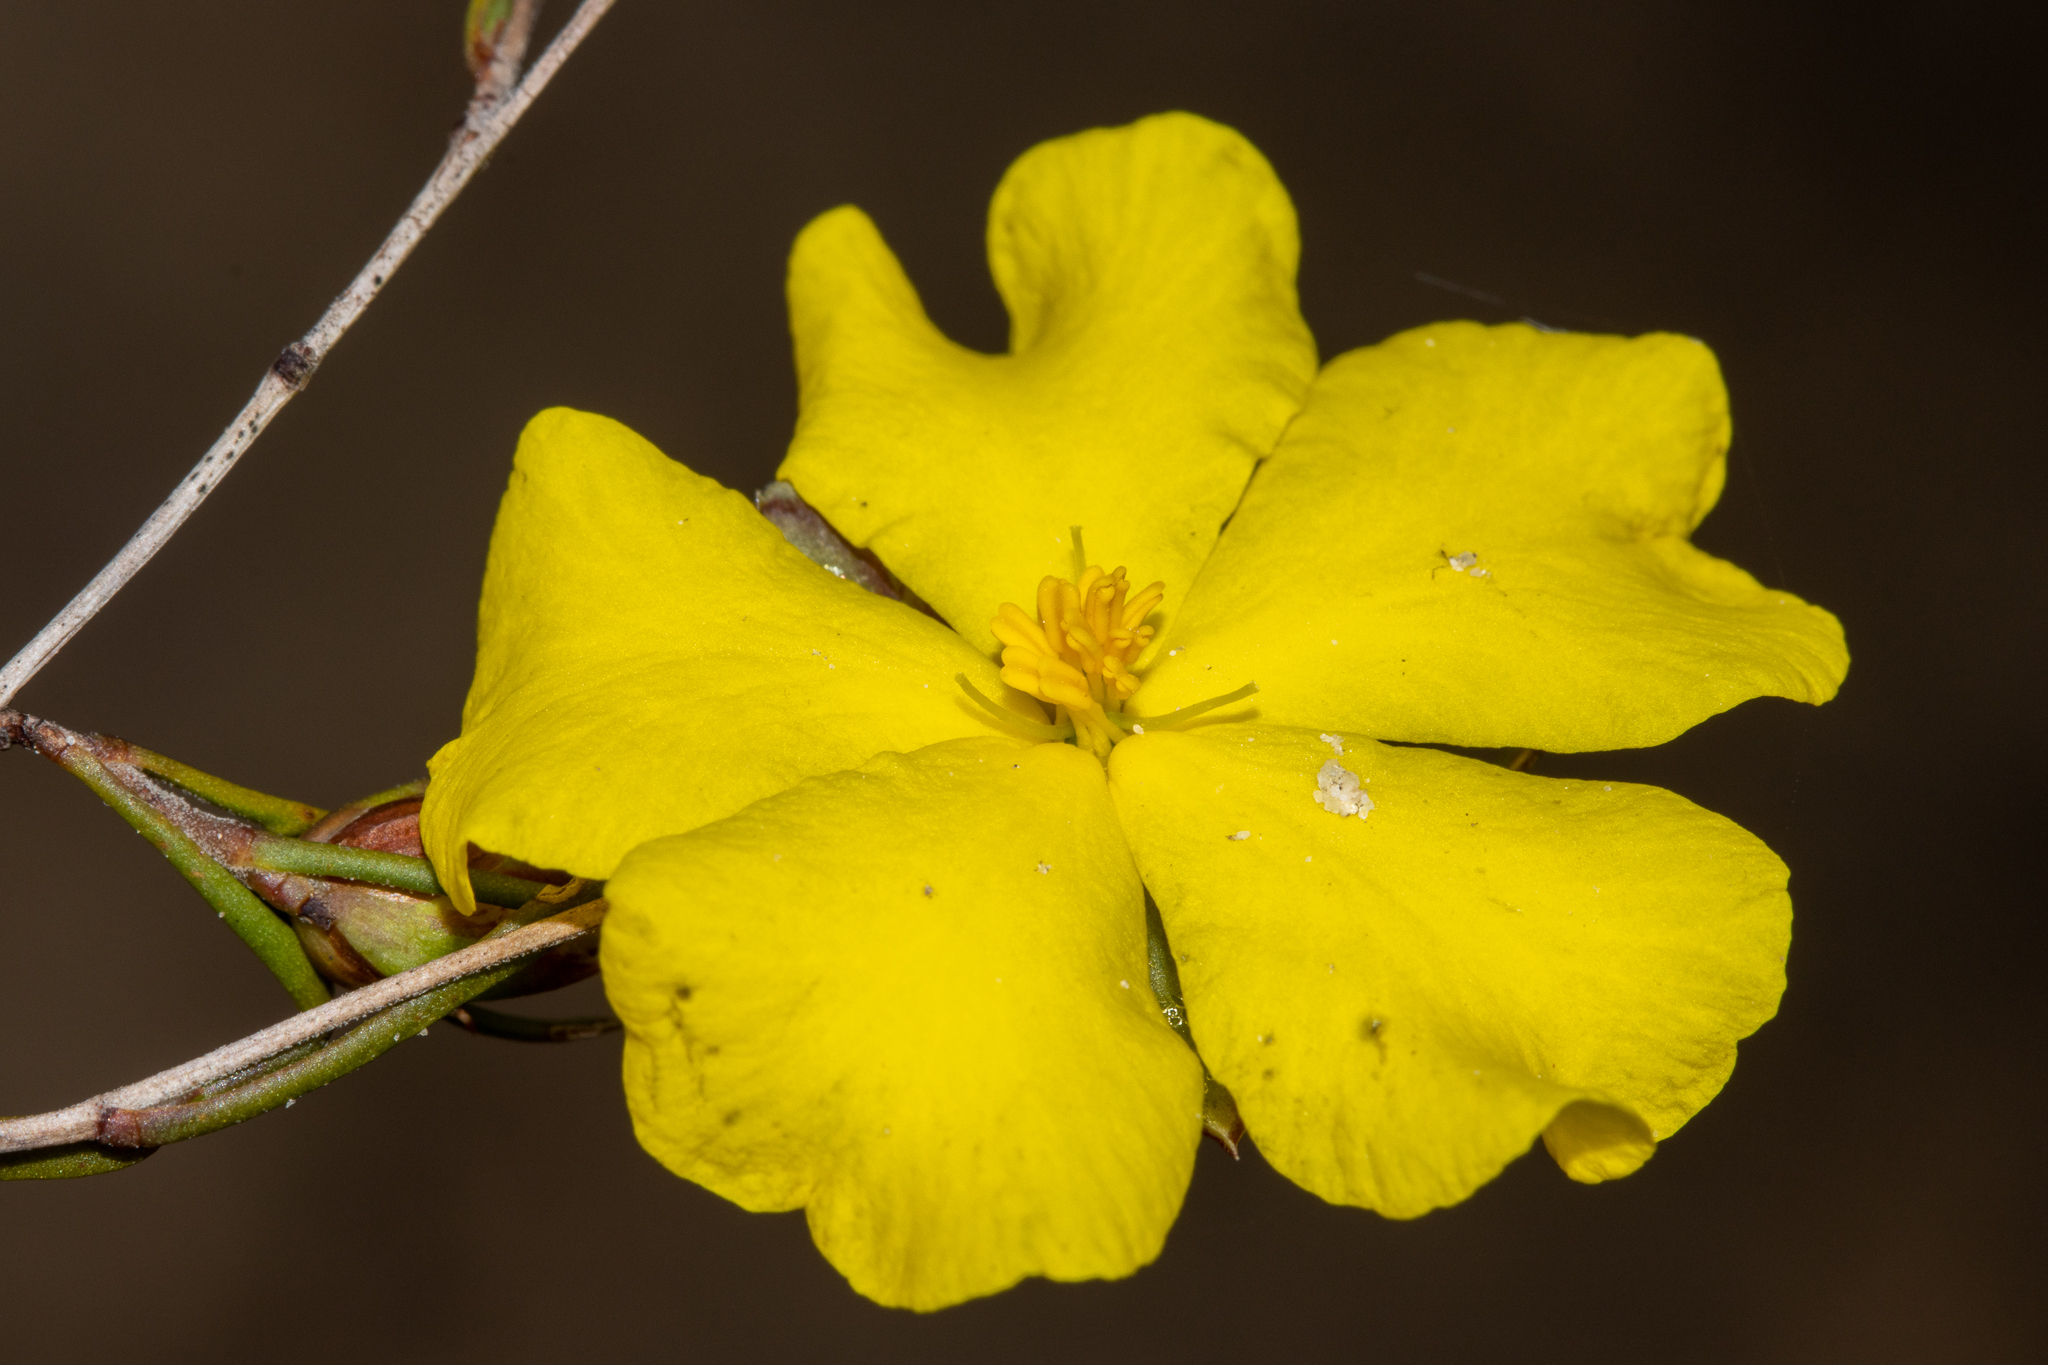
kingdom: Plantae
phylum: Tracheophyta
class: Magnoliopsida
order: Dilleniales
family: Dilleniaceae
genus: Hibbertia
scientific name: Hibbertia virgata
